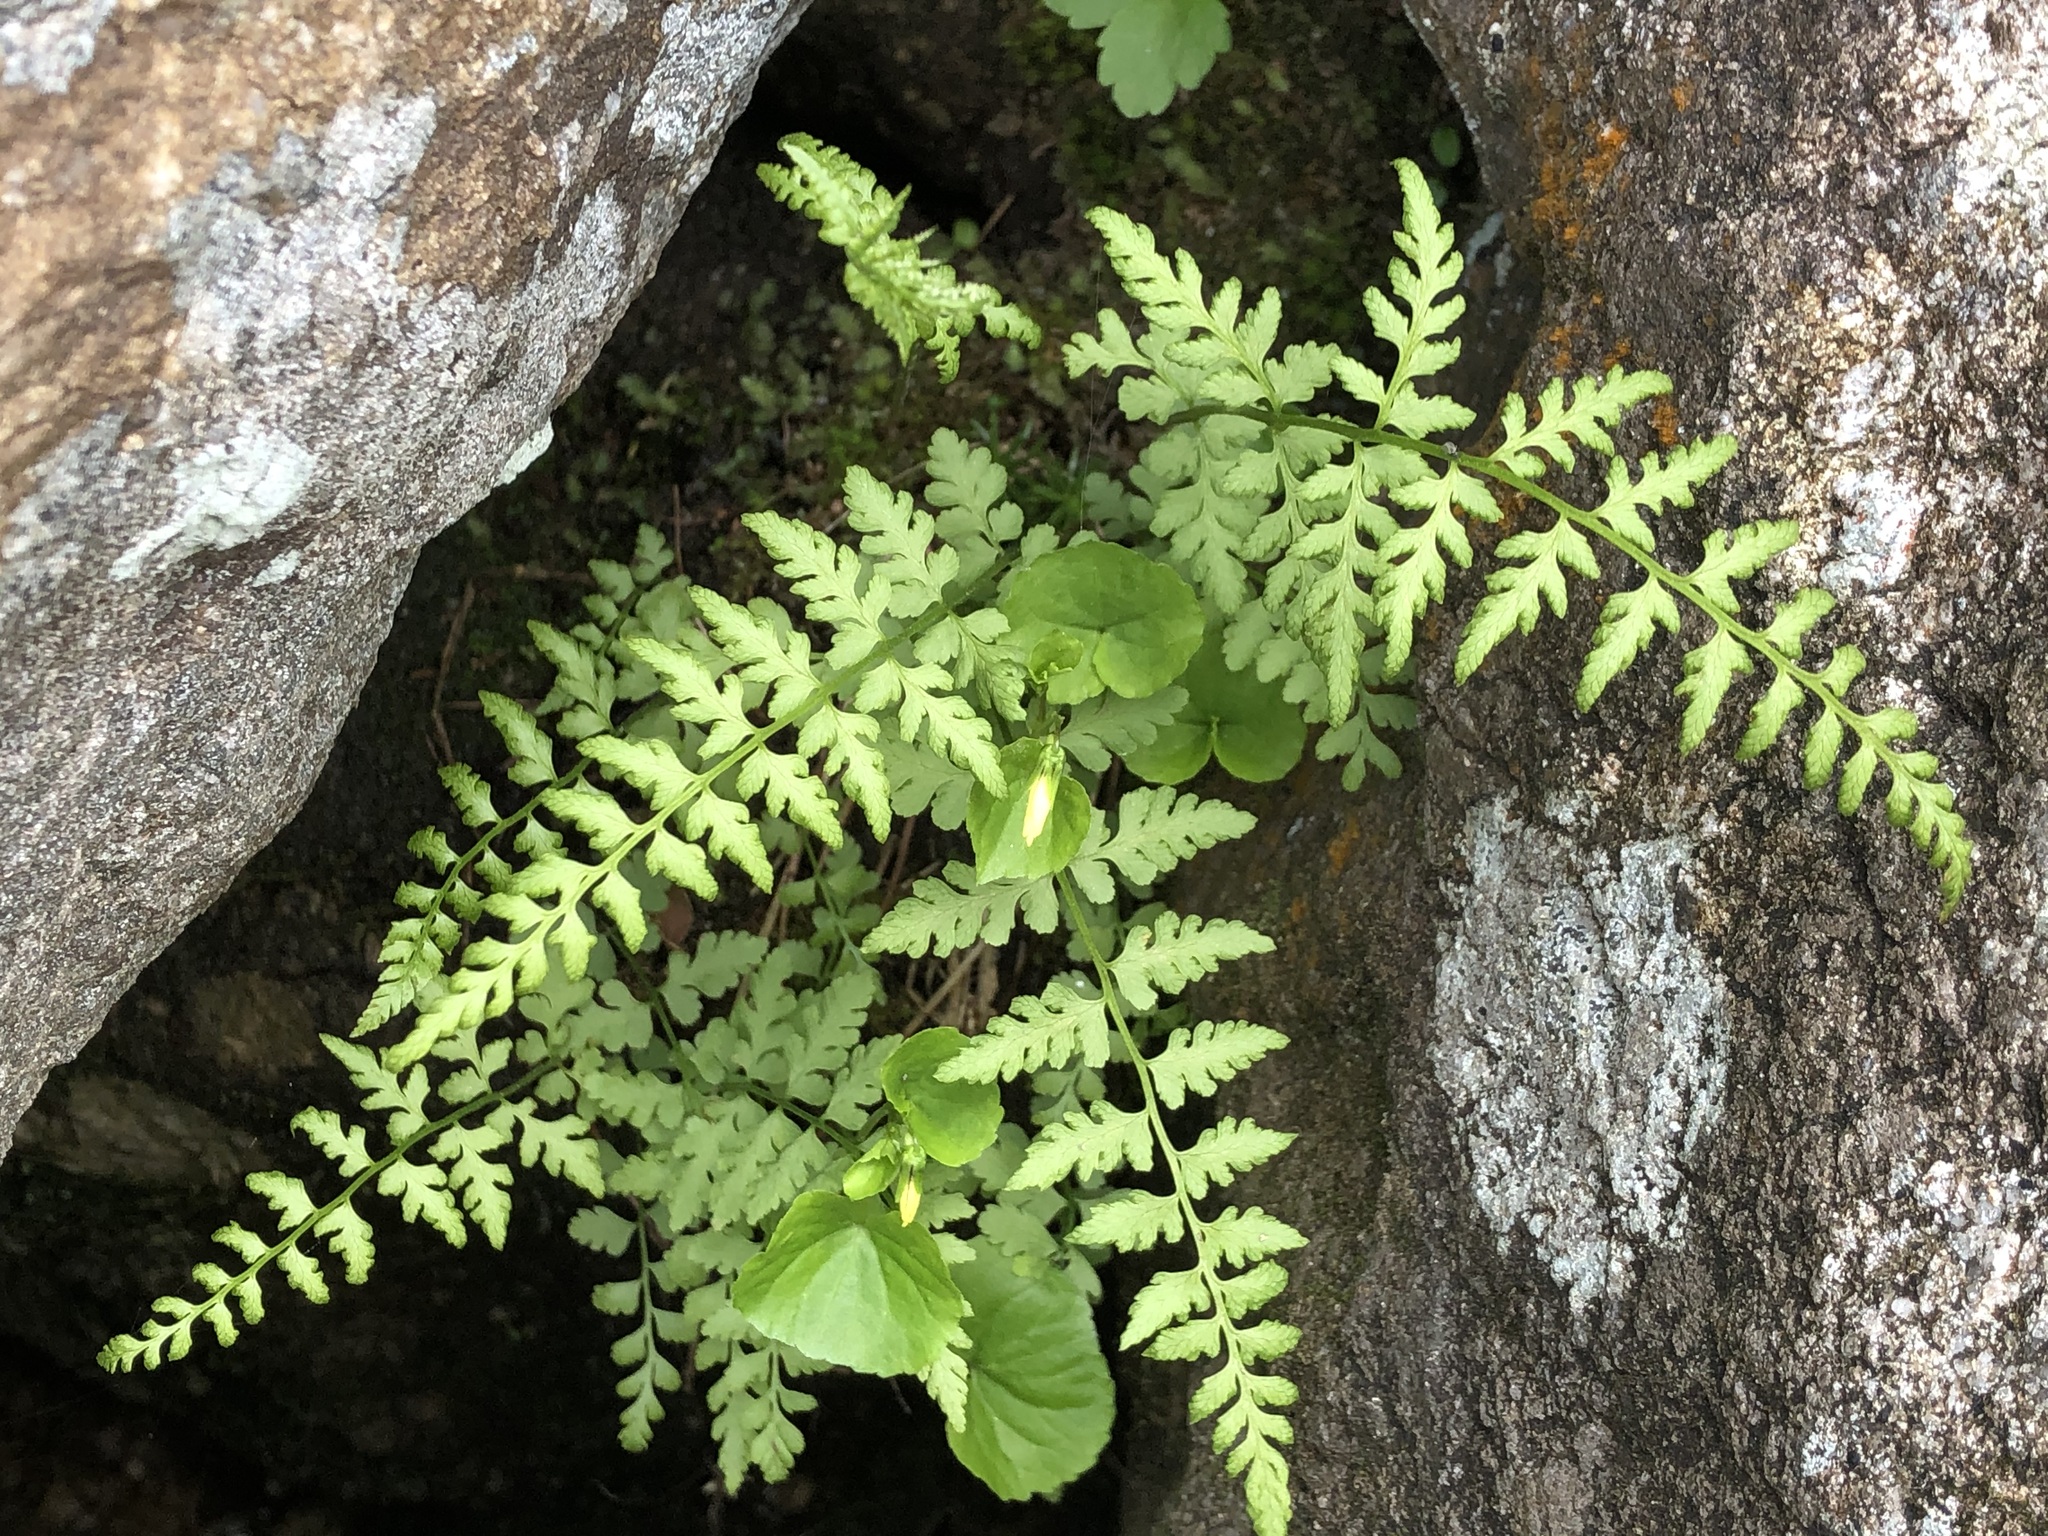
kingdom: Plantae
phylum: Tracheophyta
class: Polypodiopsida
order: Polypodiales
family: Cystopteridaceae
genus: Cystopteris
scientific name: Cystopteris fragilis
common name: Brittle bladder fern
